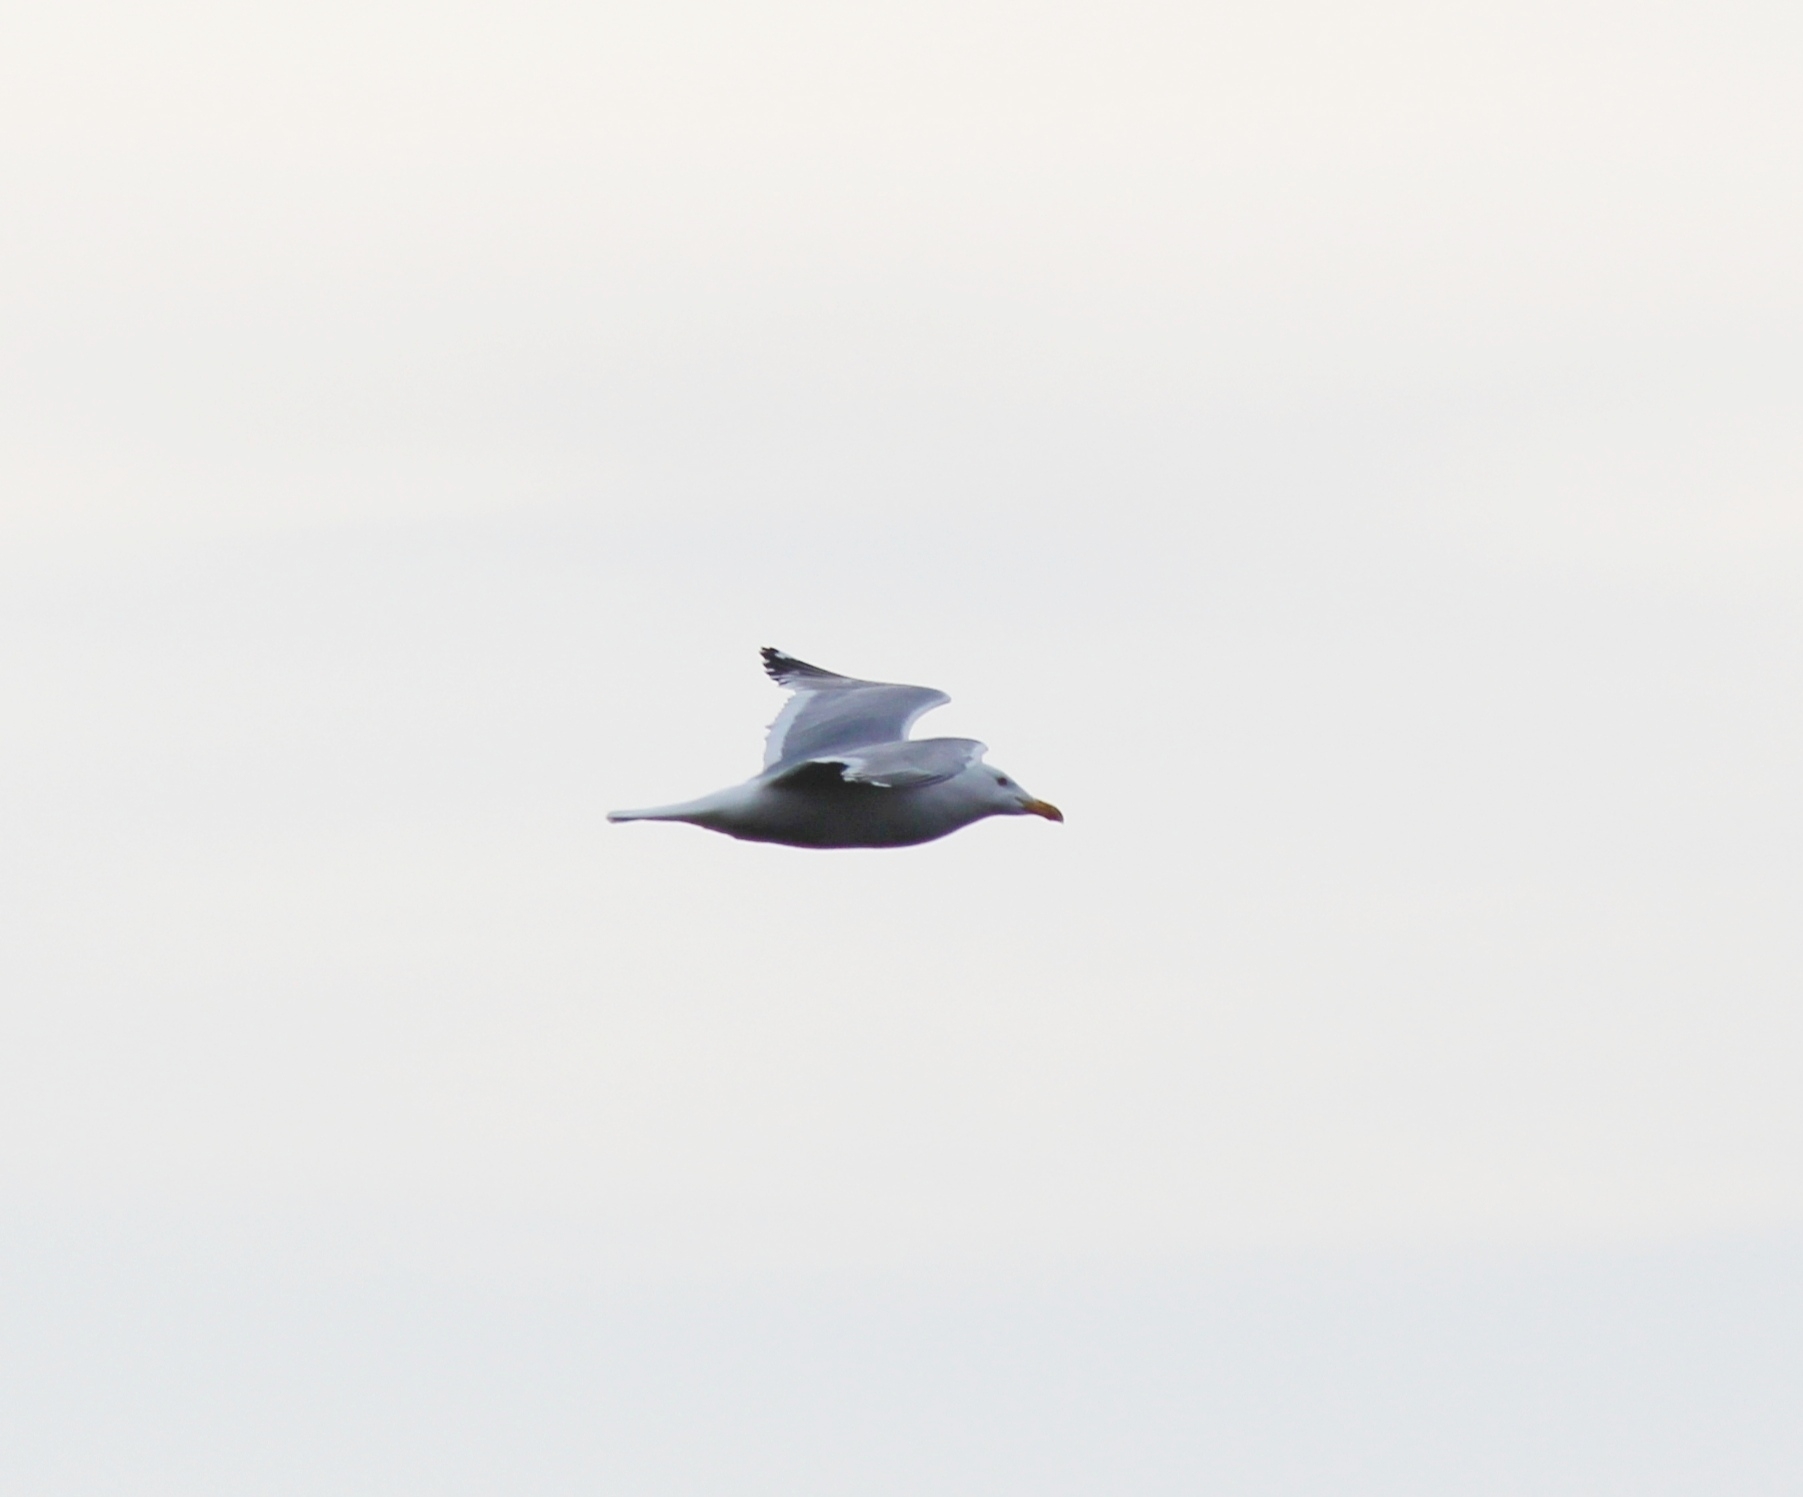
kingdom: Animalia
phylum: Chordata
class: Aves
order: Charadriiformes
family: Laridae
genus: Larus
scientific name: Larus vegae
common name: Vega gull
